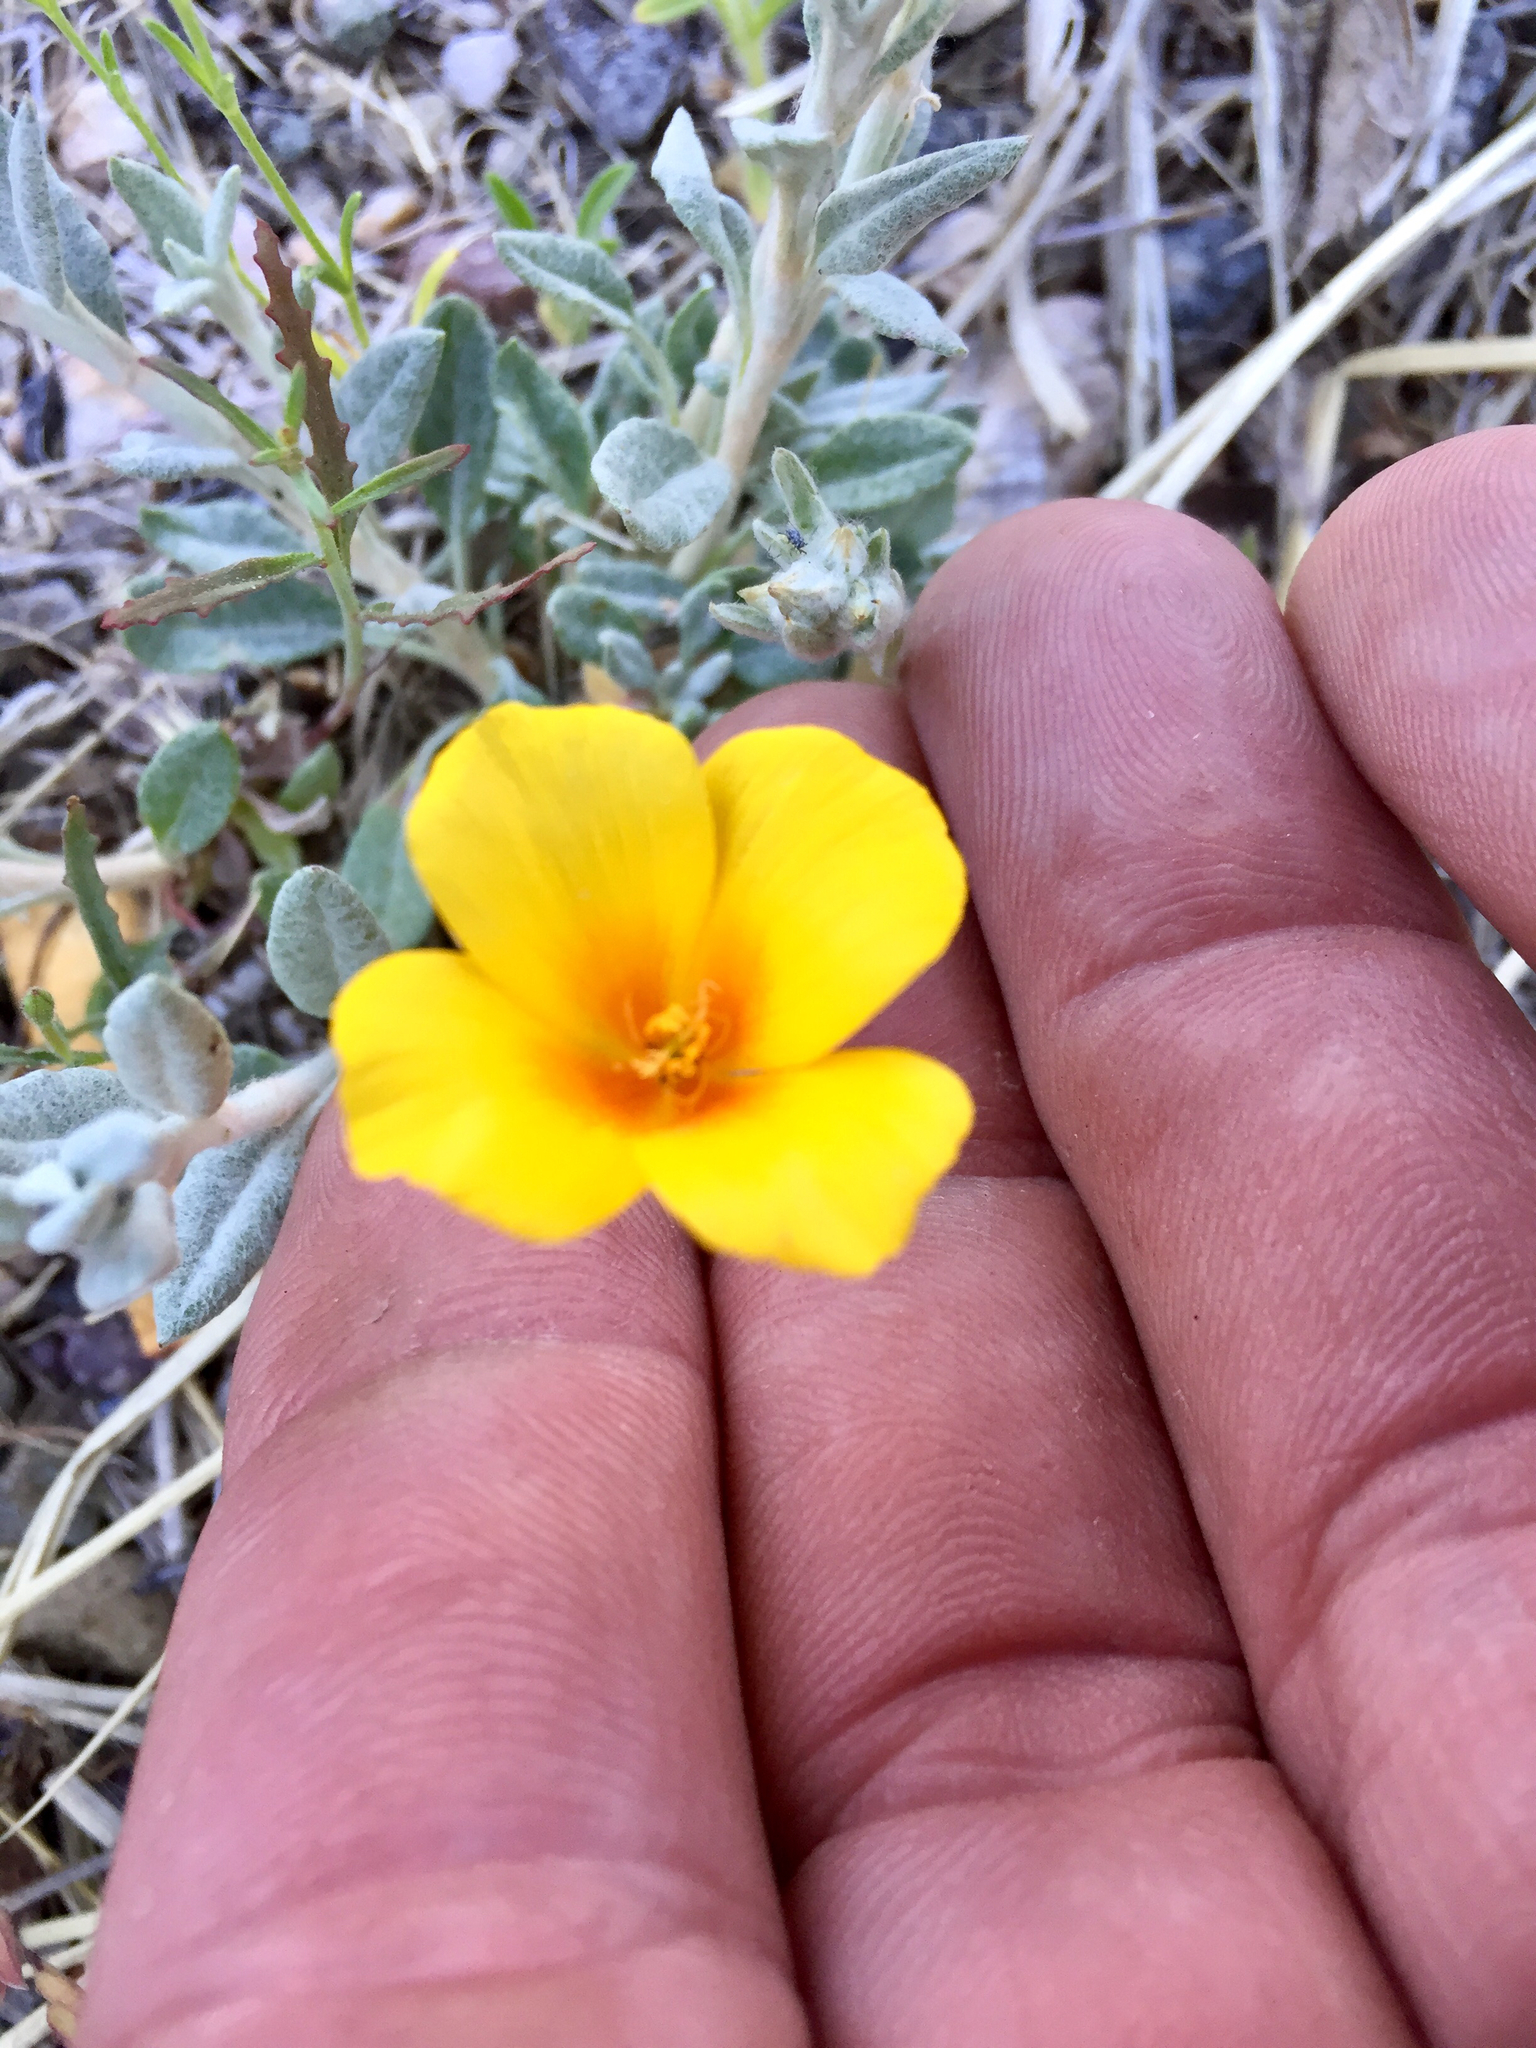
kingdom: Plantae
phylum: Tracheophyta
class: Magnoliopsida
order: Ranunculales
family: Papaveraceae
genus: Eschscholzia
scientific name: Eschscholzia californica
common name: California poppy
